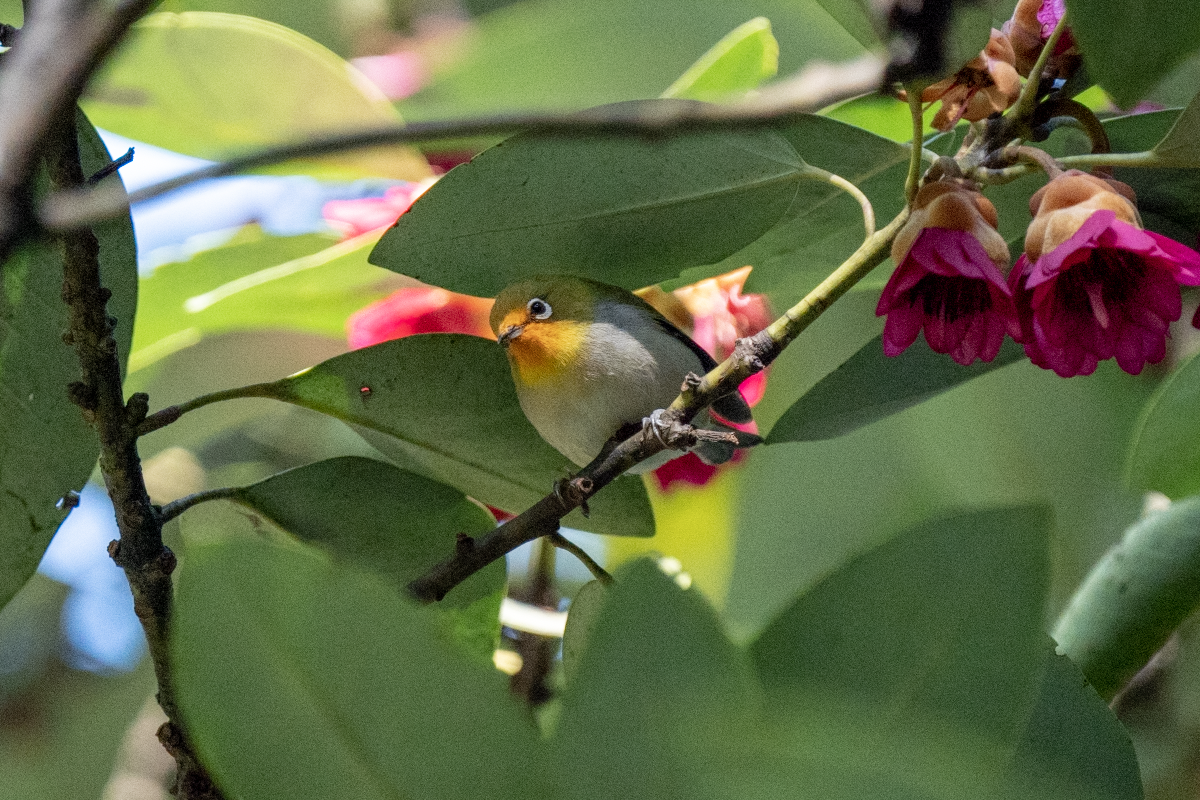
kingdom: Animalia
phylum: Chordata
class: Aves
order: Passeriformes
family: Zosteropidae
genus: Zosterops
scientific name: Zosterops simplex
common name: Swinhoe's white-eye
